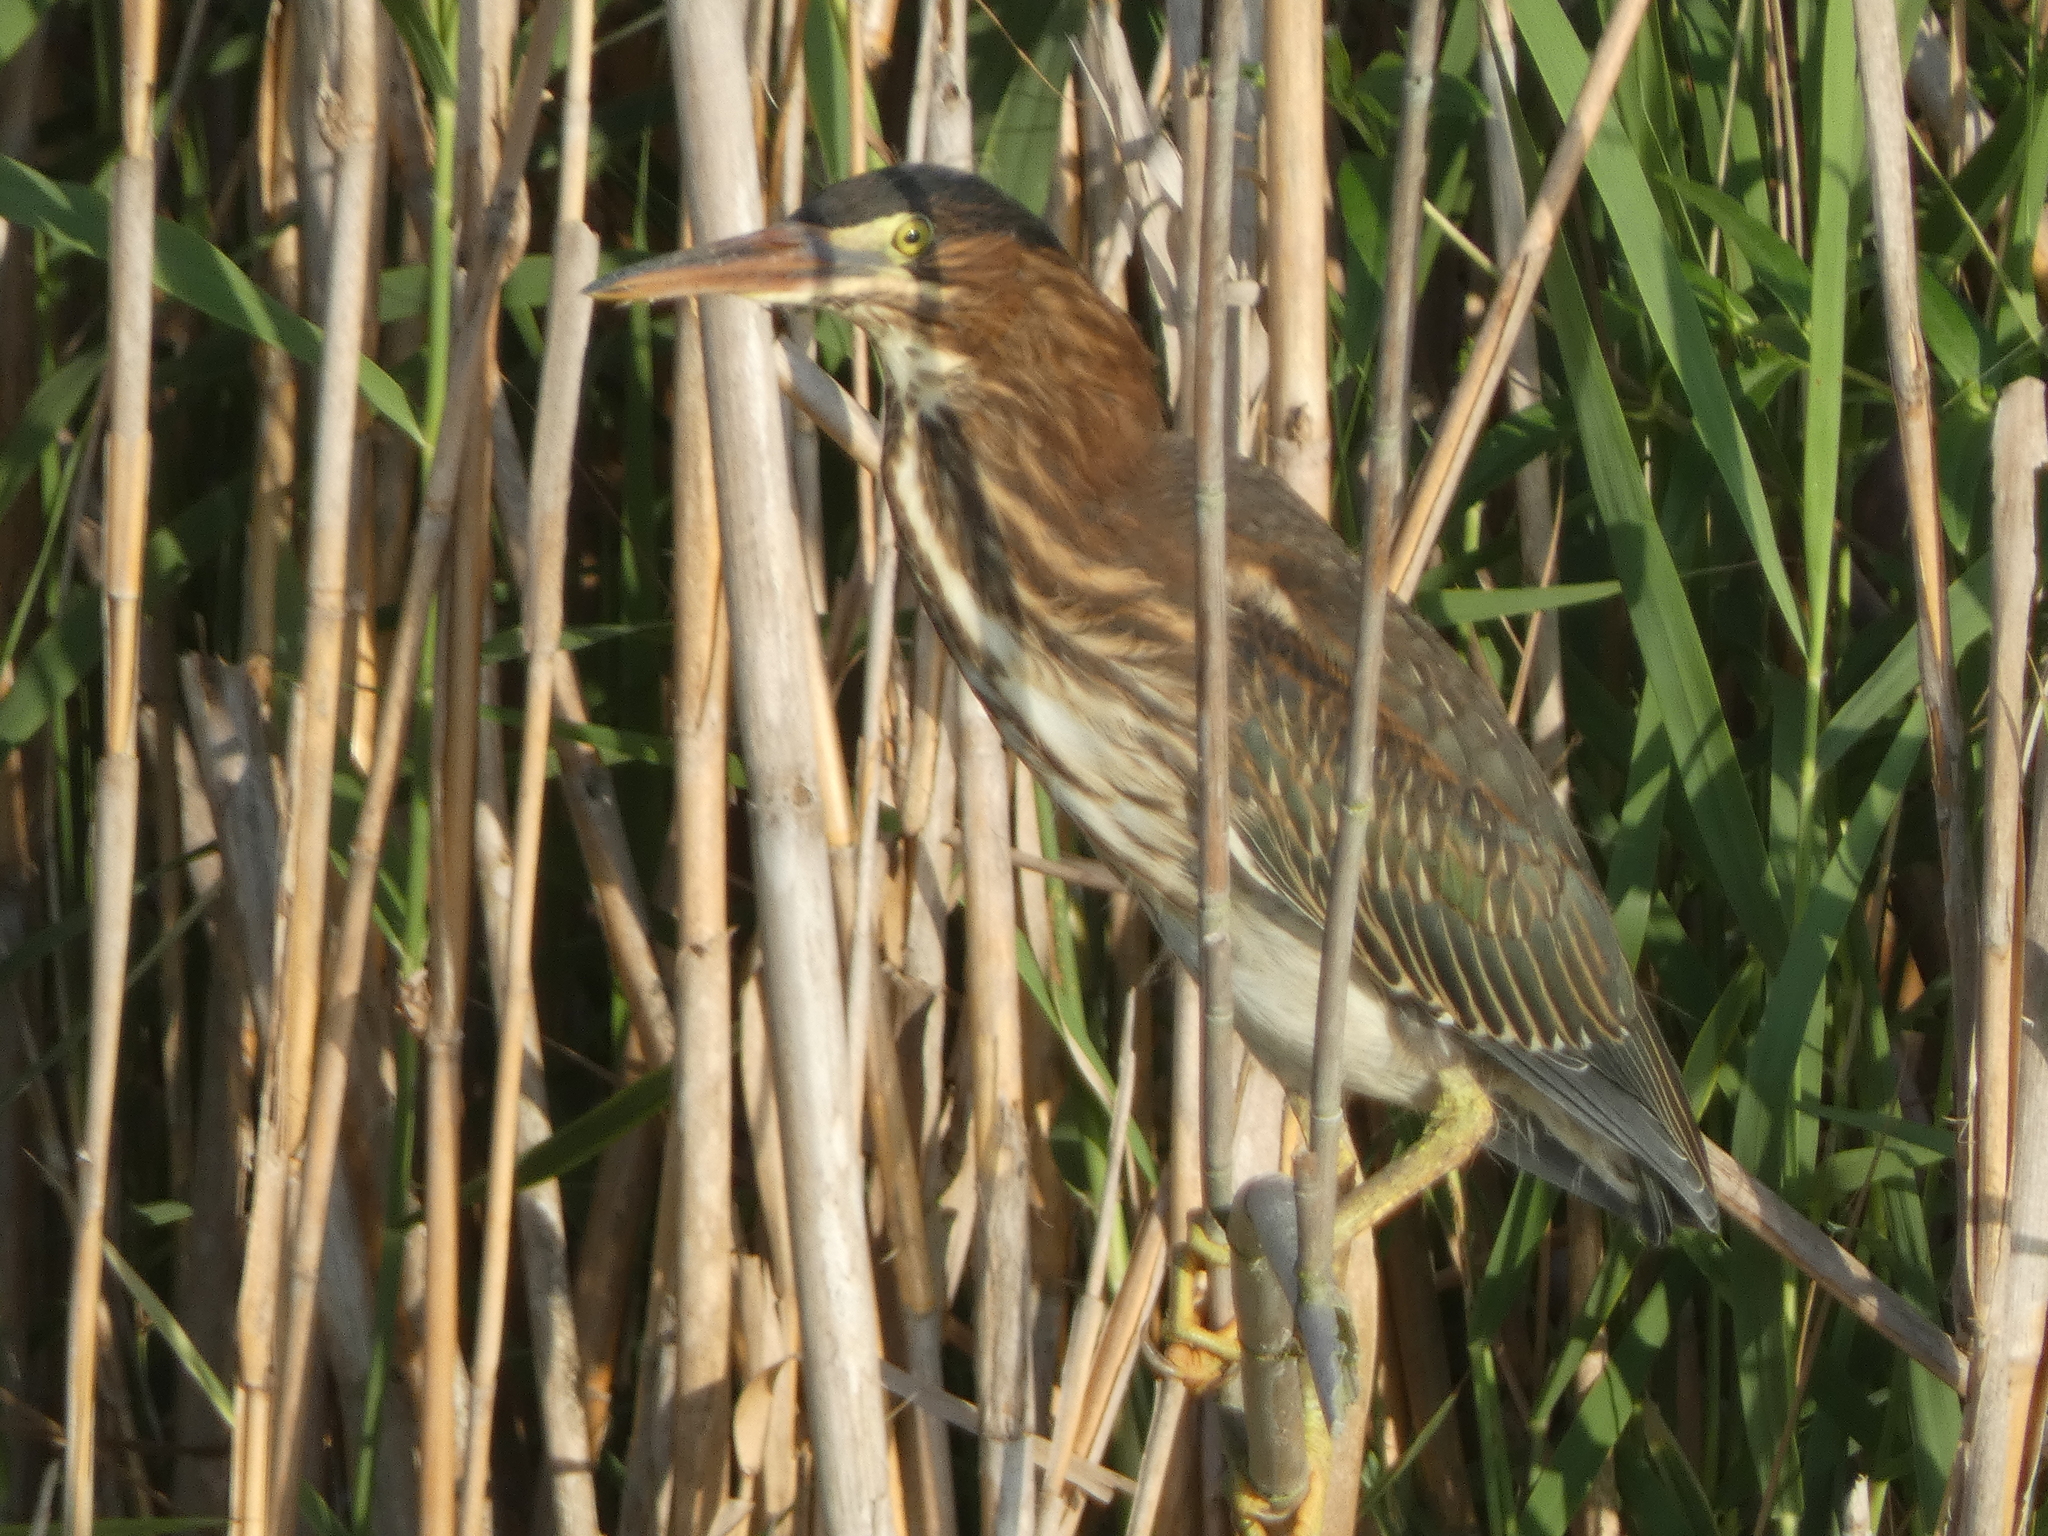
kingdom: Animalia
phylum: Chordata
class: Aves
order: Pelecaniformes
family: Ardeidae
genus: Butorides
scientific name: Butorides virescens
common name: Green heron
